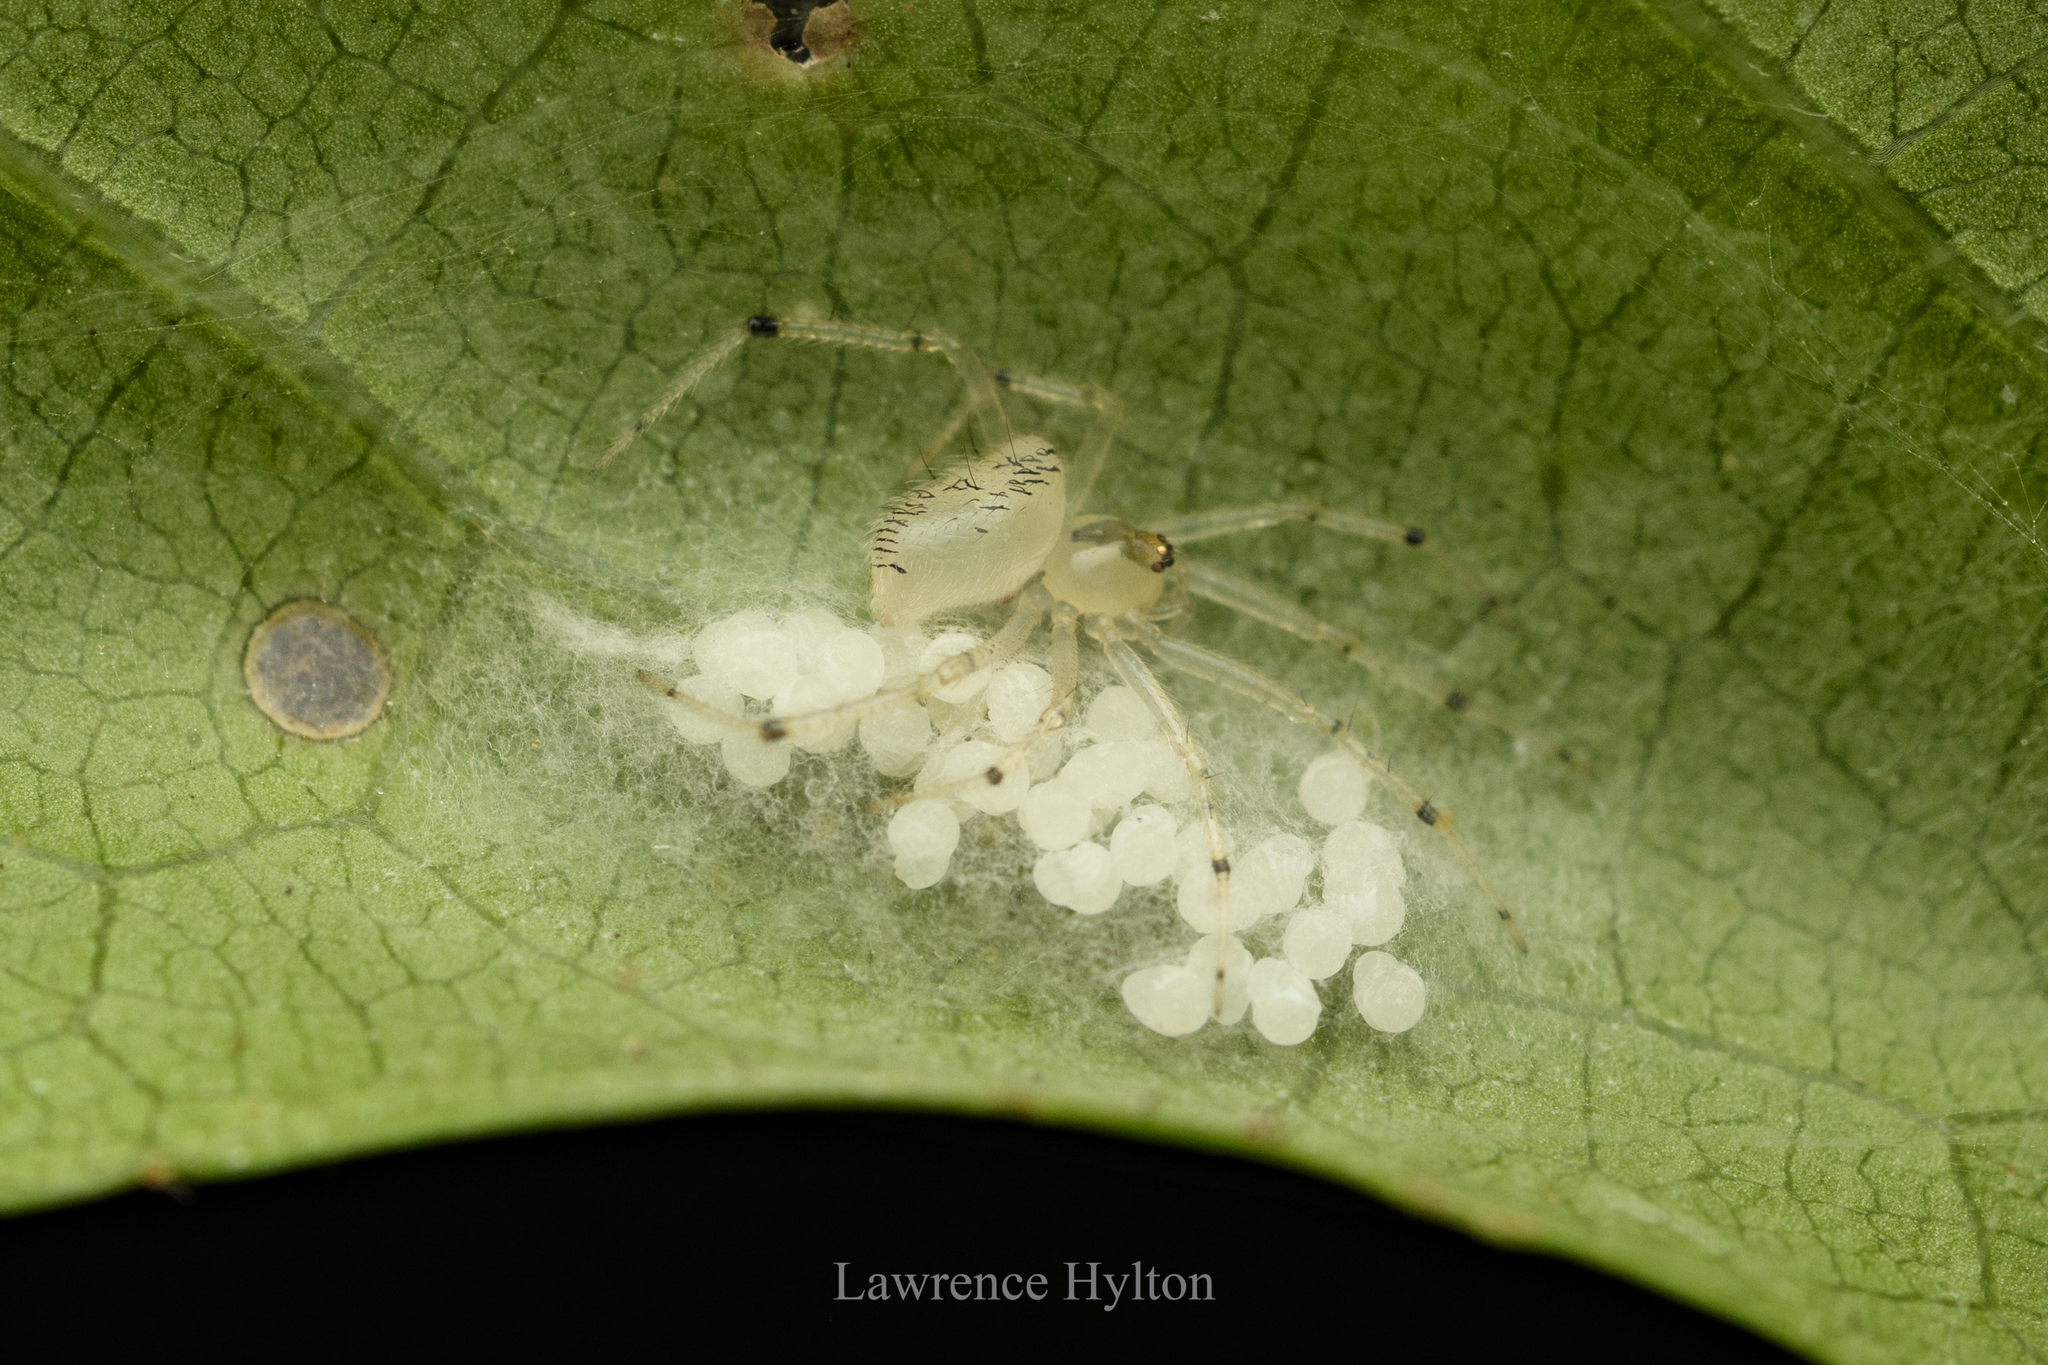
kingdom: Animalia
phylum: Arthropoda
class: Arachnida
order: Araneae
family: Theridiidae
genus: Phycosoma
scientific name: Phycosoma digitula
